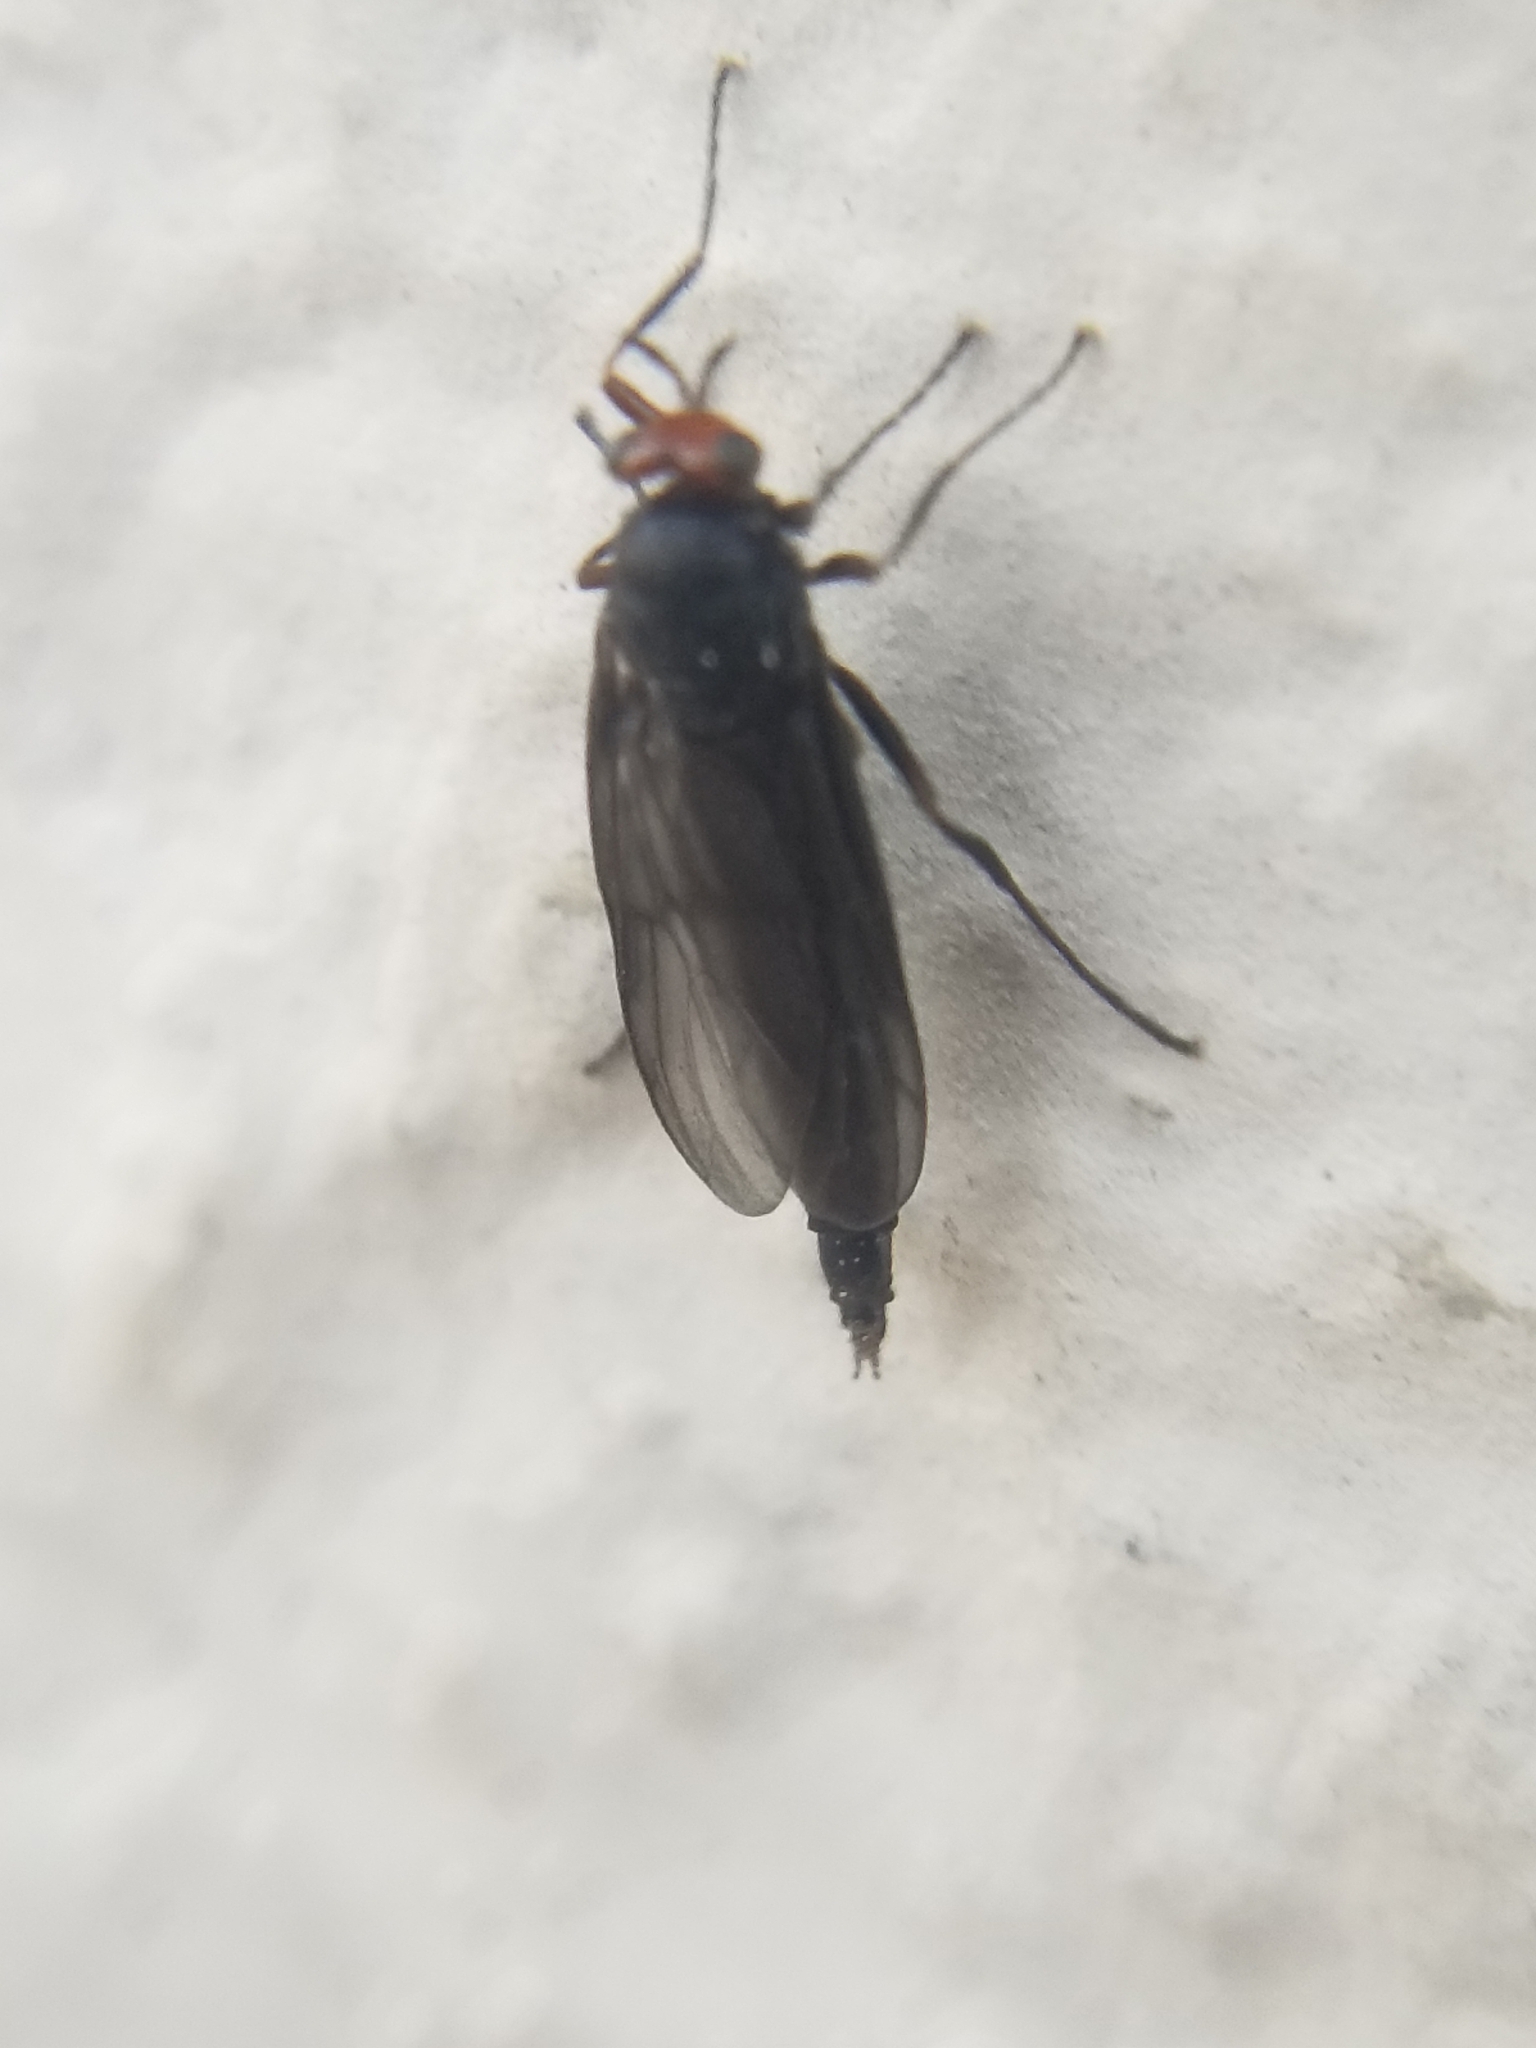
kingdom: Animalia
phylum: Arthropoda
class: Insecta
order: Diptera
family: Stratiomyidae
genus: Inopus
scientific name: Inopus rubriceps
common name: Soldier fly
